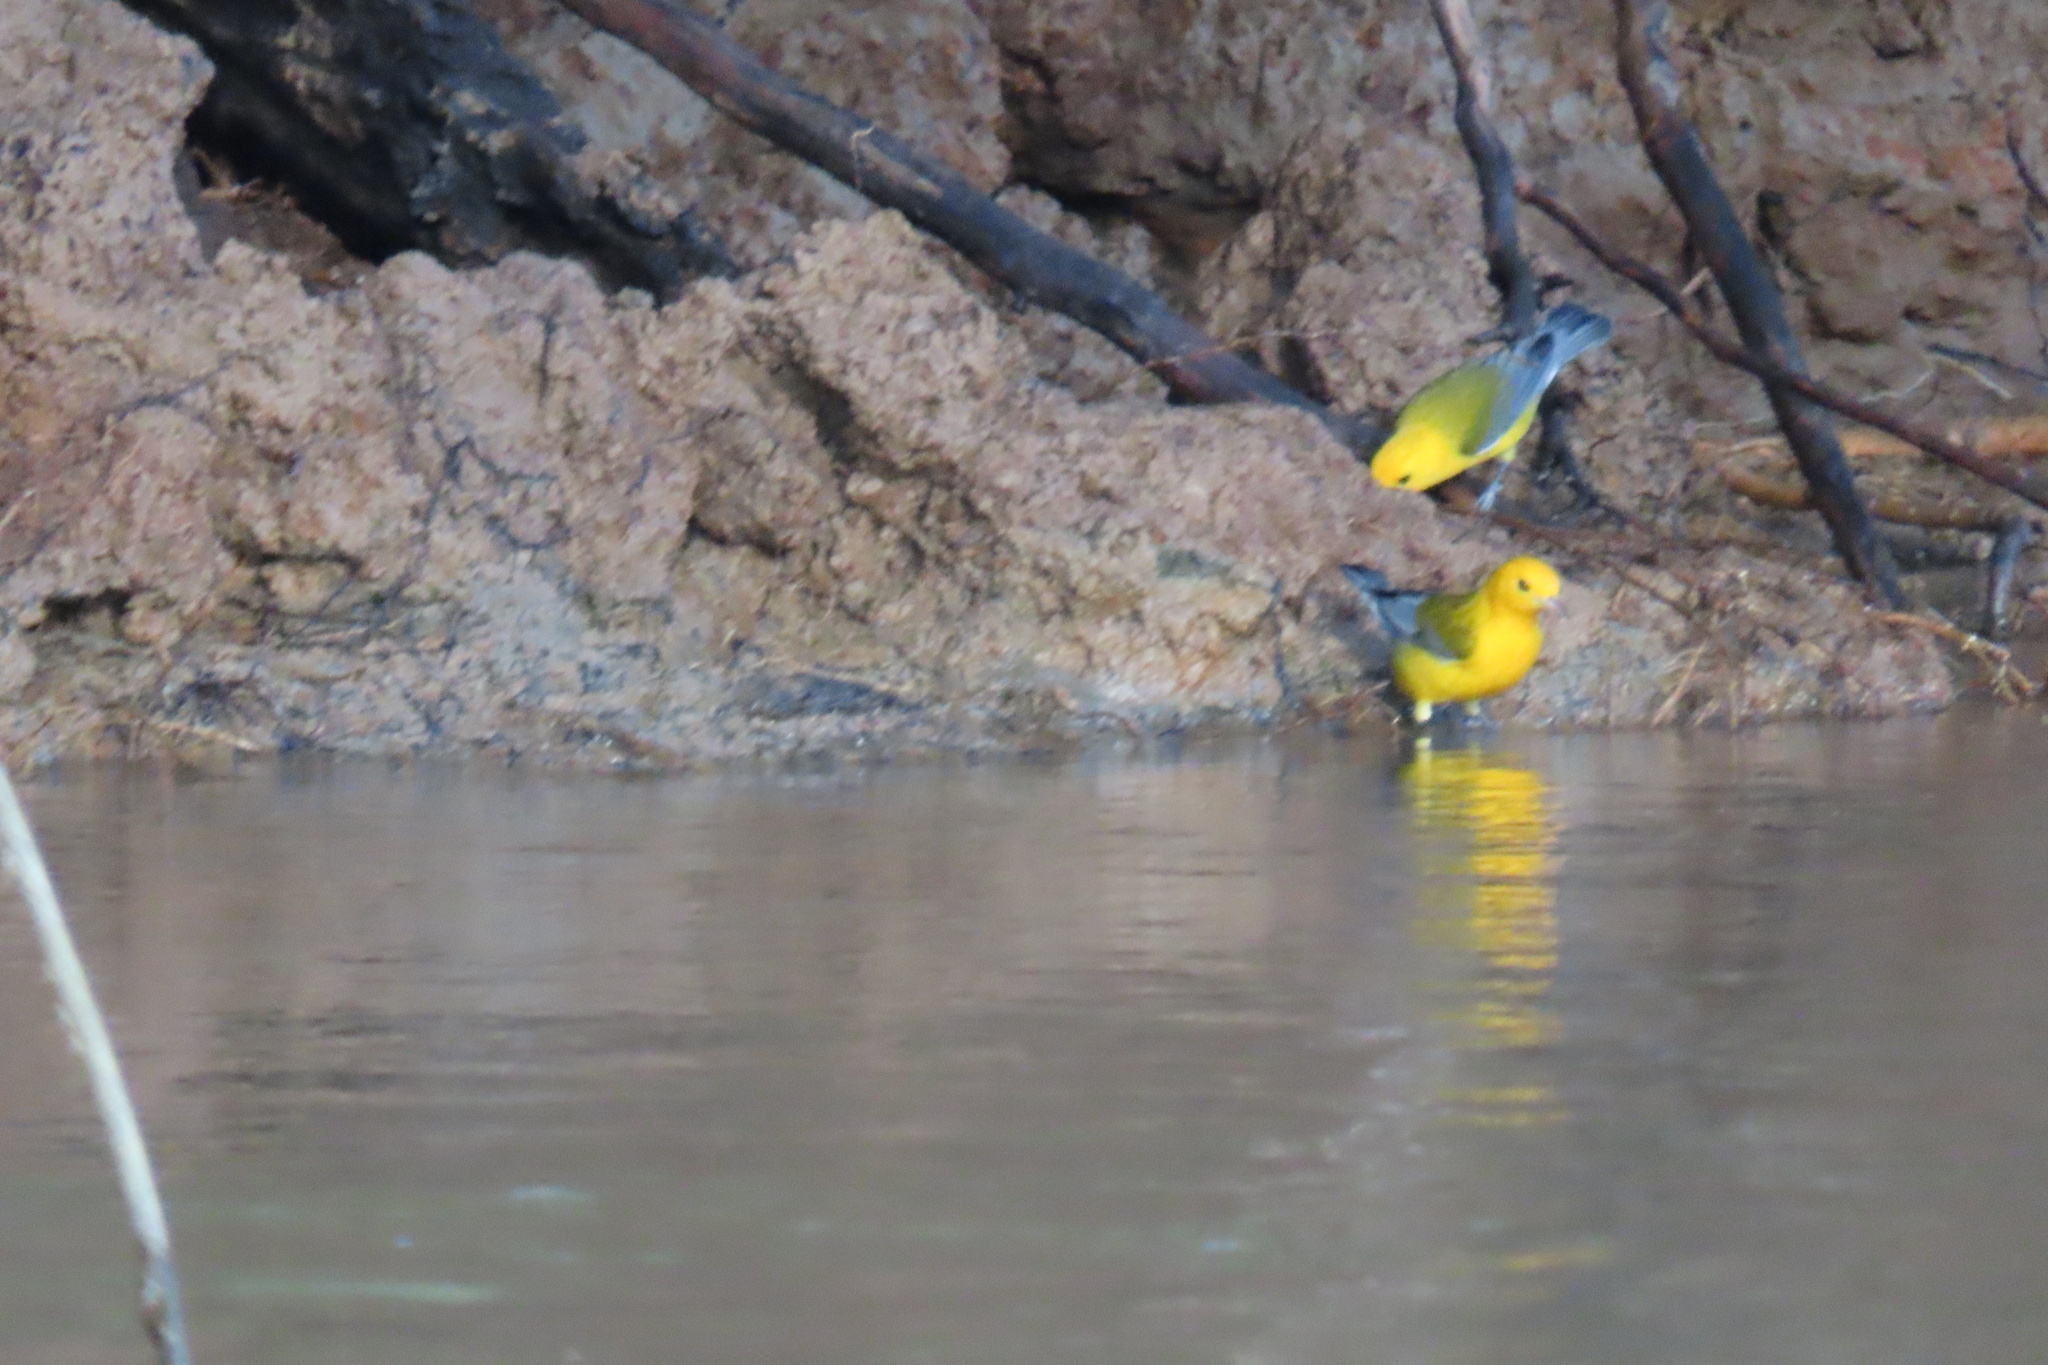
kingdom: Animalia
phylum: Chordata
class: Aves
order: Passeriformes
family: Parulidae
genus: Protonotaria
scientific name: Protonotaria citrea
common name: Prothonotary warbler
